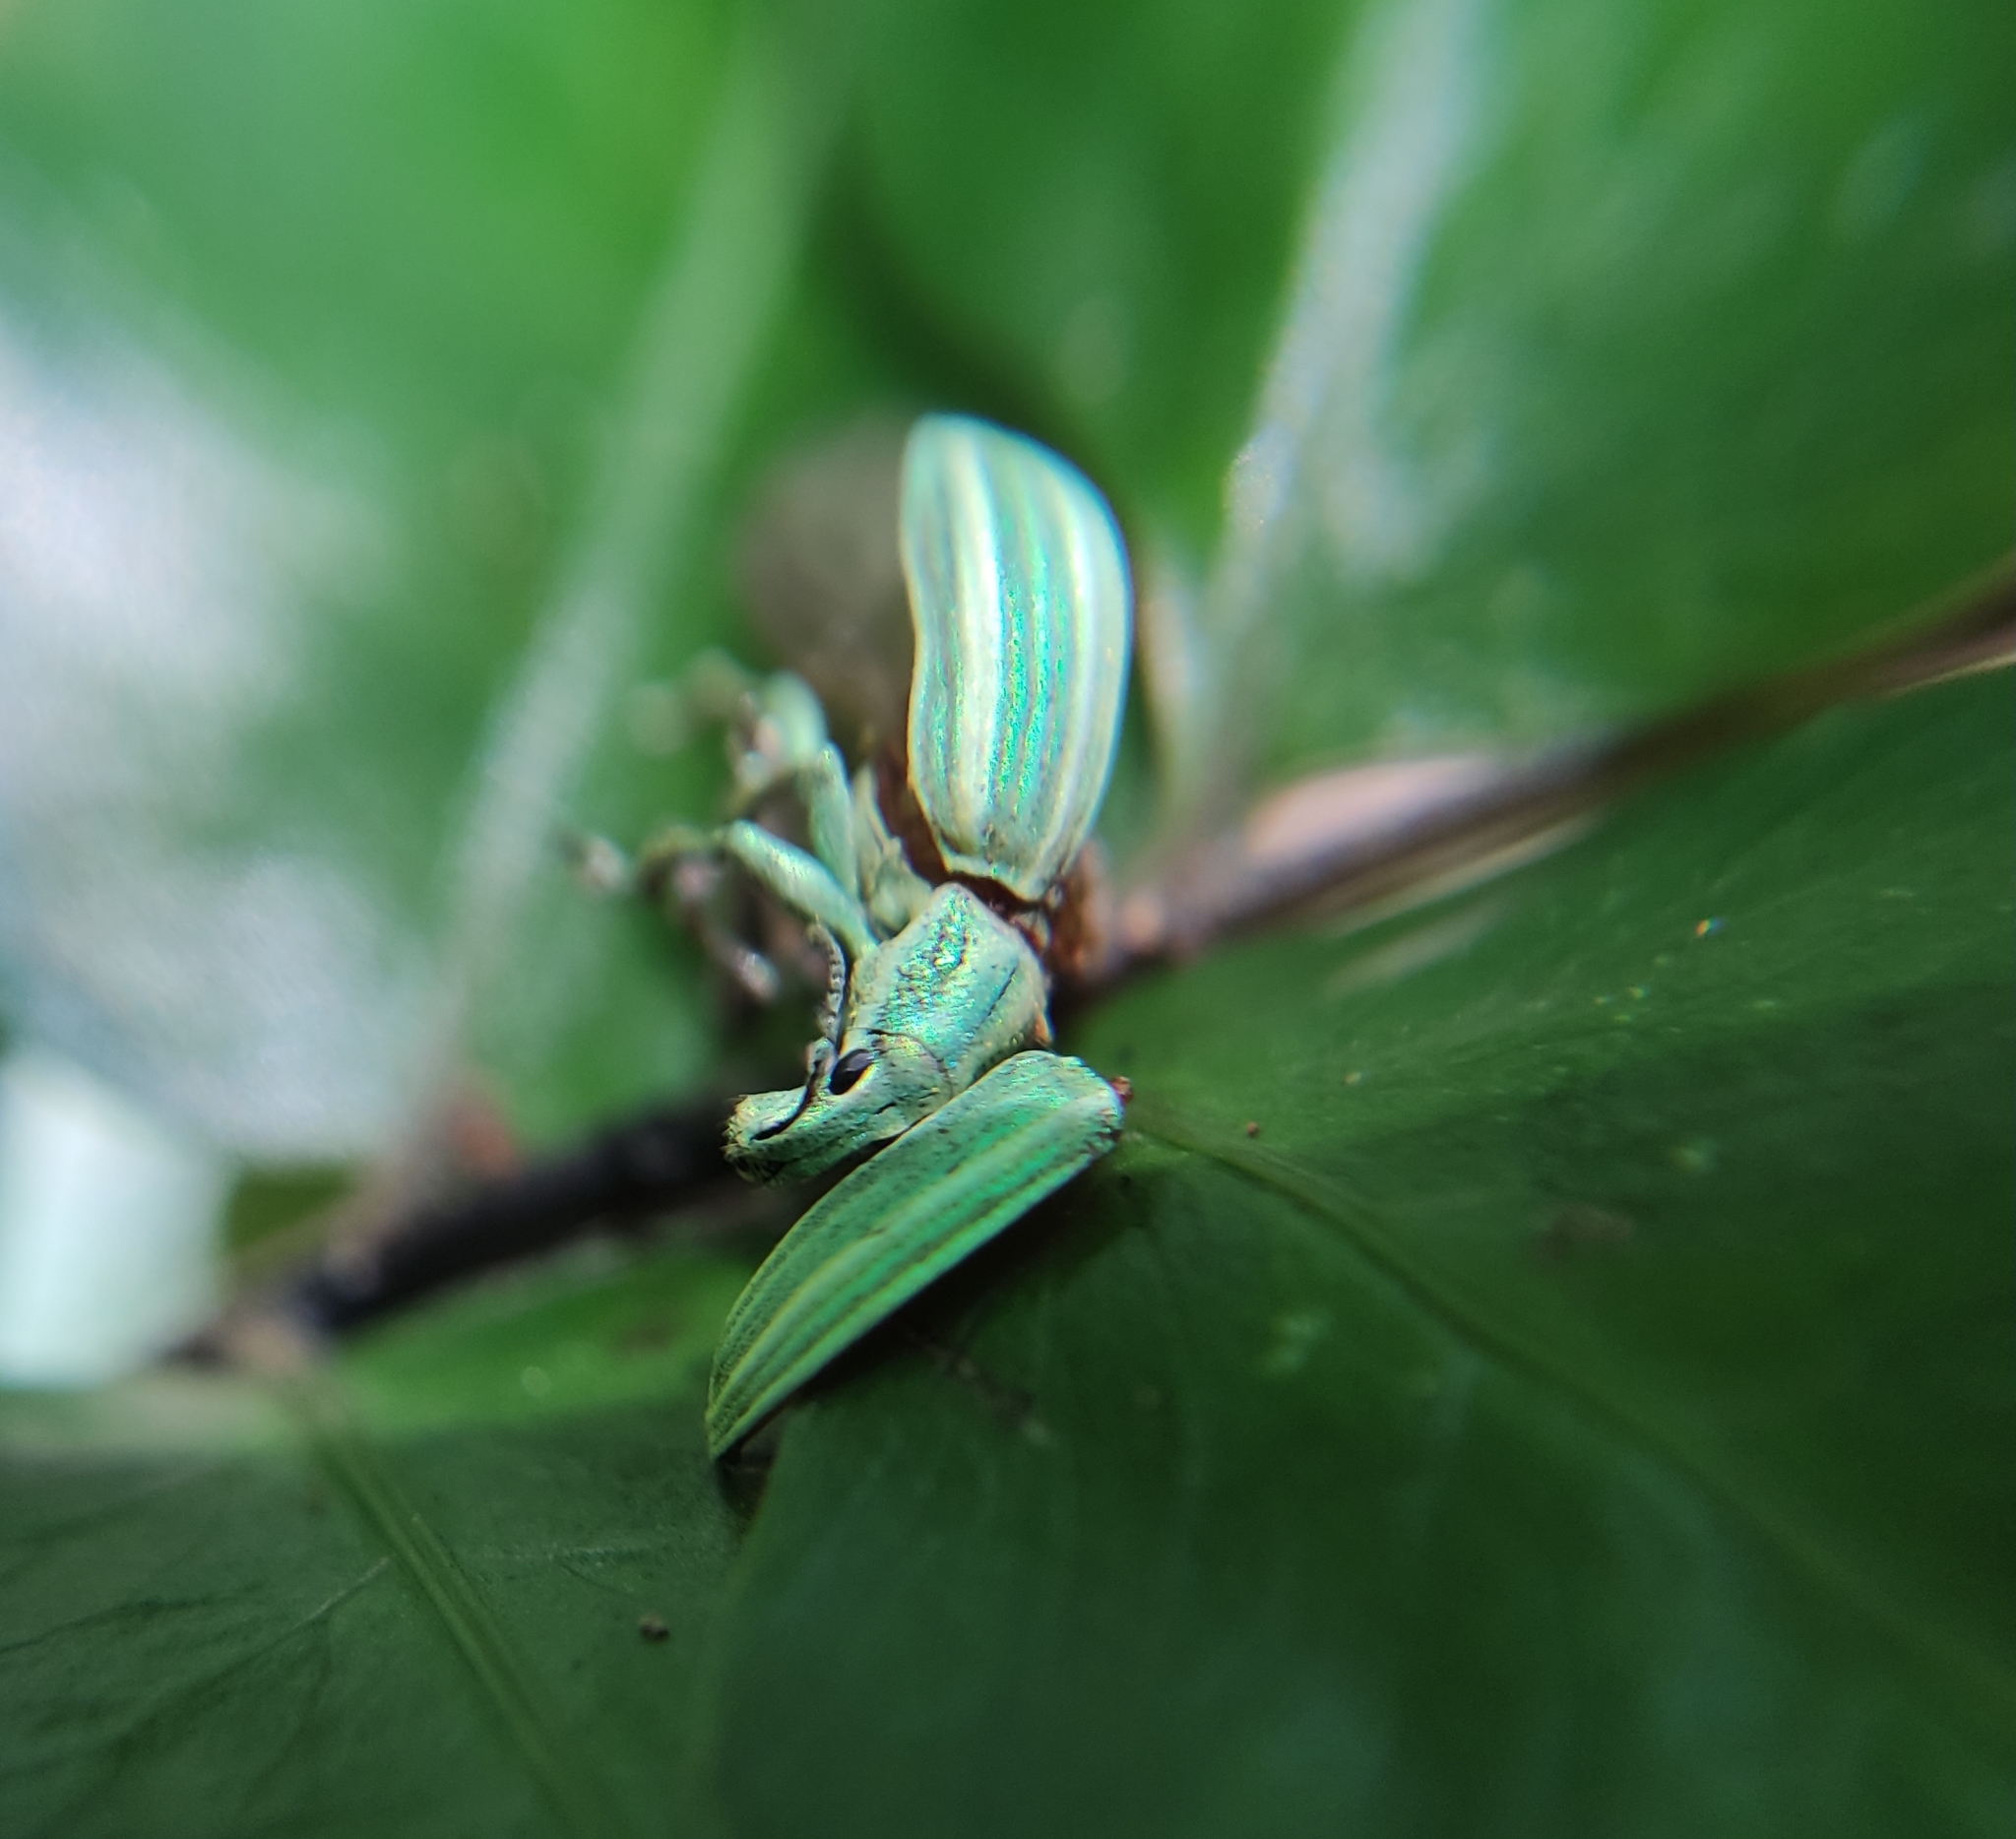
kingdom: Animalia
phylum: Arthropoda
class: Insecta
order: Coleoptera
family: Curculionidae
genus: Phaops
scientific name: Phaops ambitiosus
